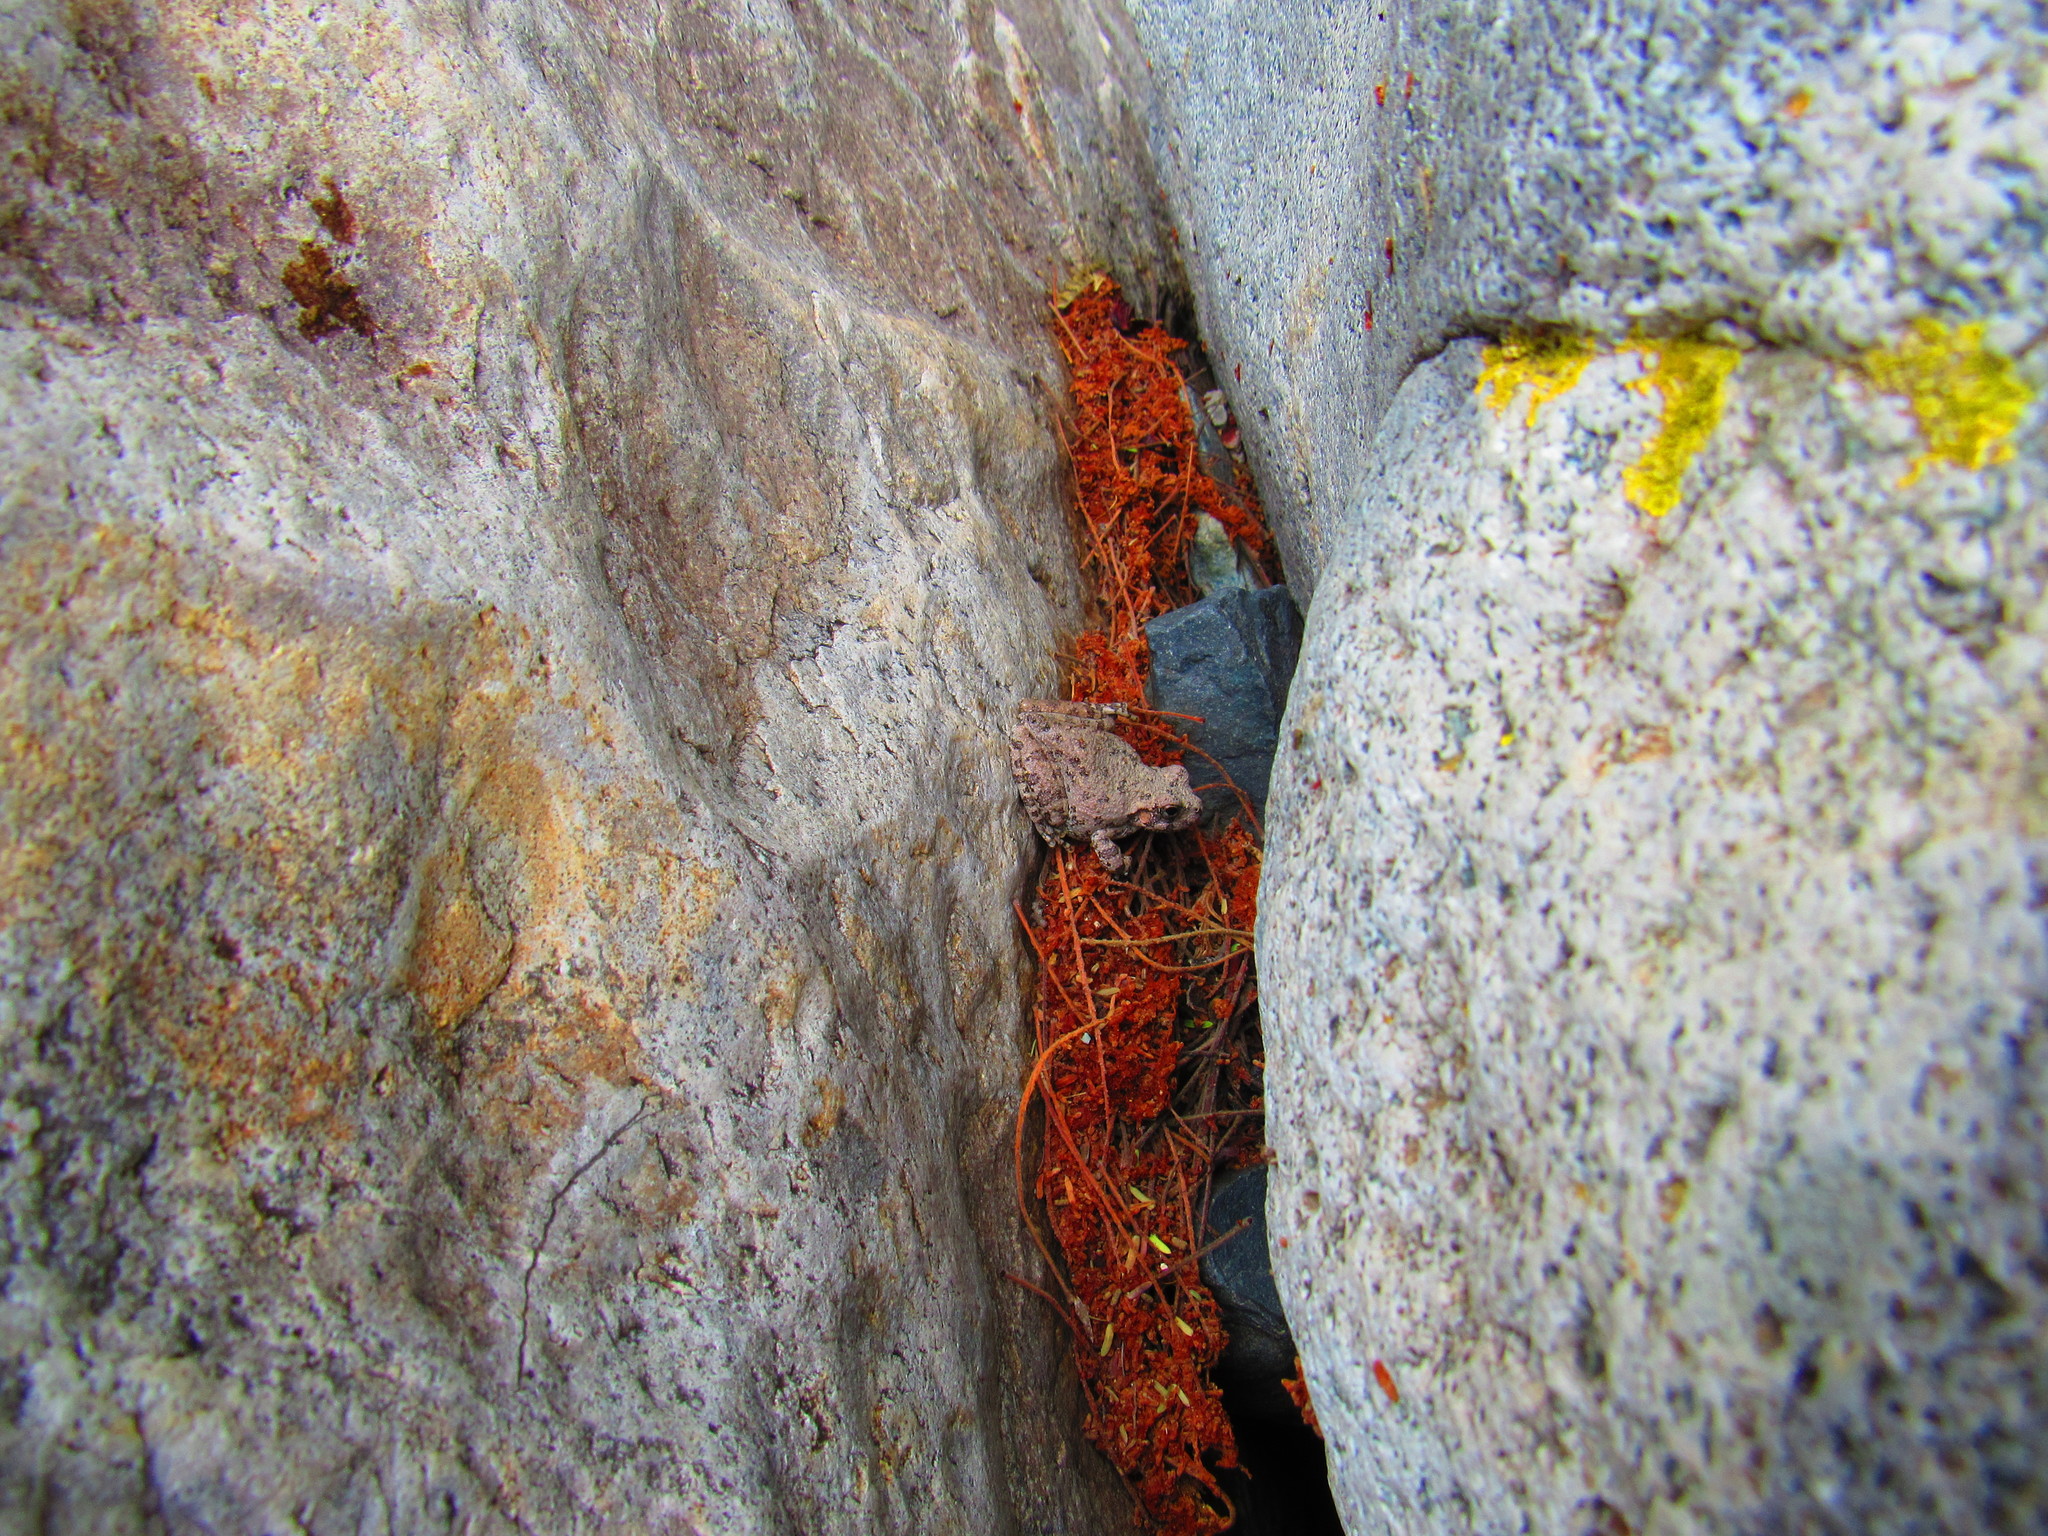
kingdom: Animalia
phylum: Chordata
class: Amphibia
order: Anura
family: Hylidae
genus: Dryophytes
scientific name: Dryophytes arenicolor
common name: Canyon treefrog
